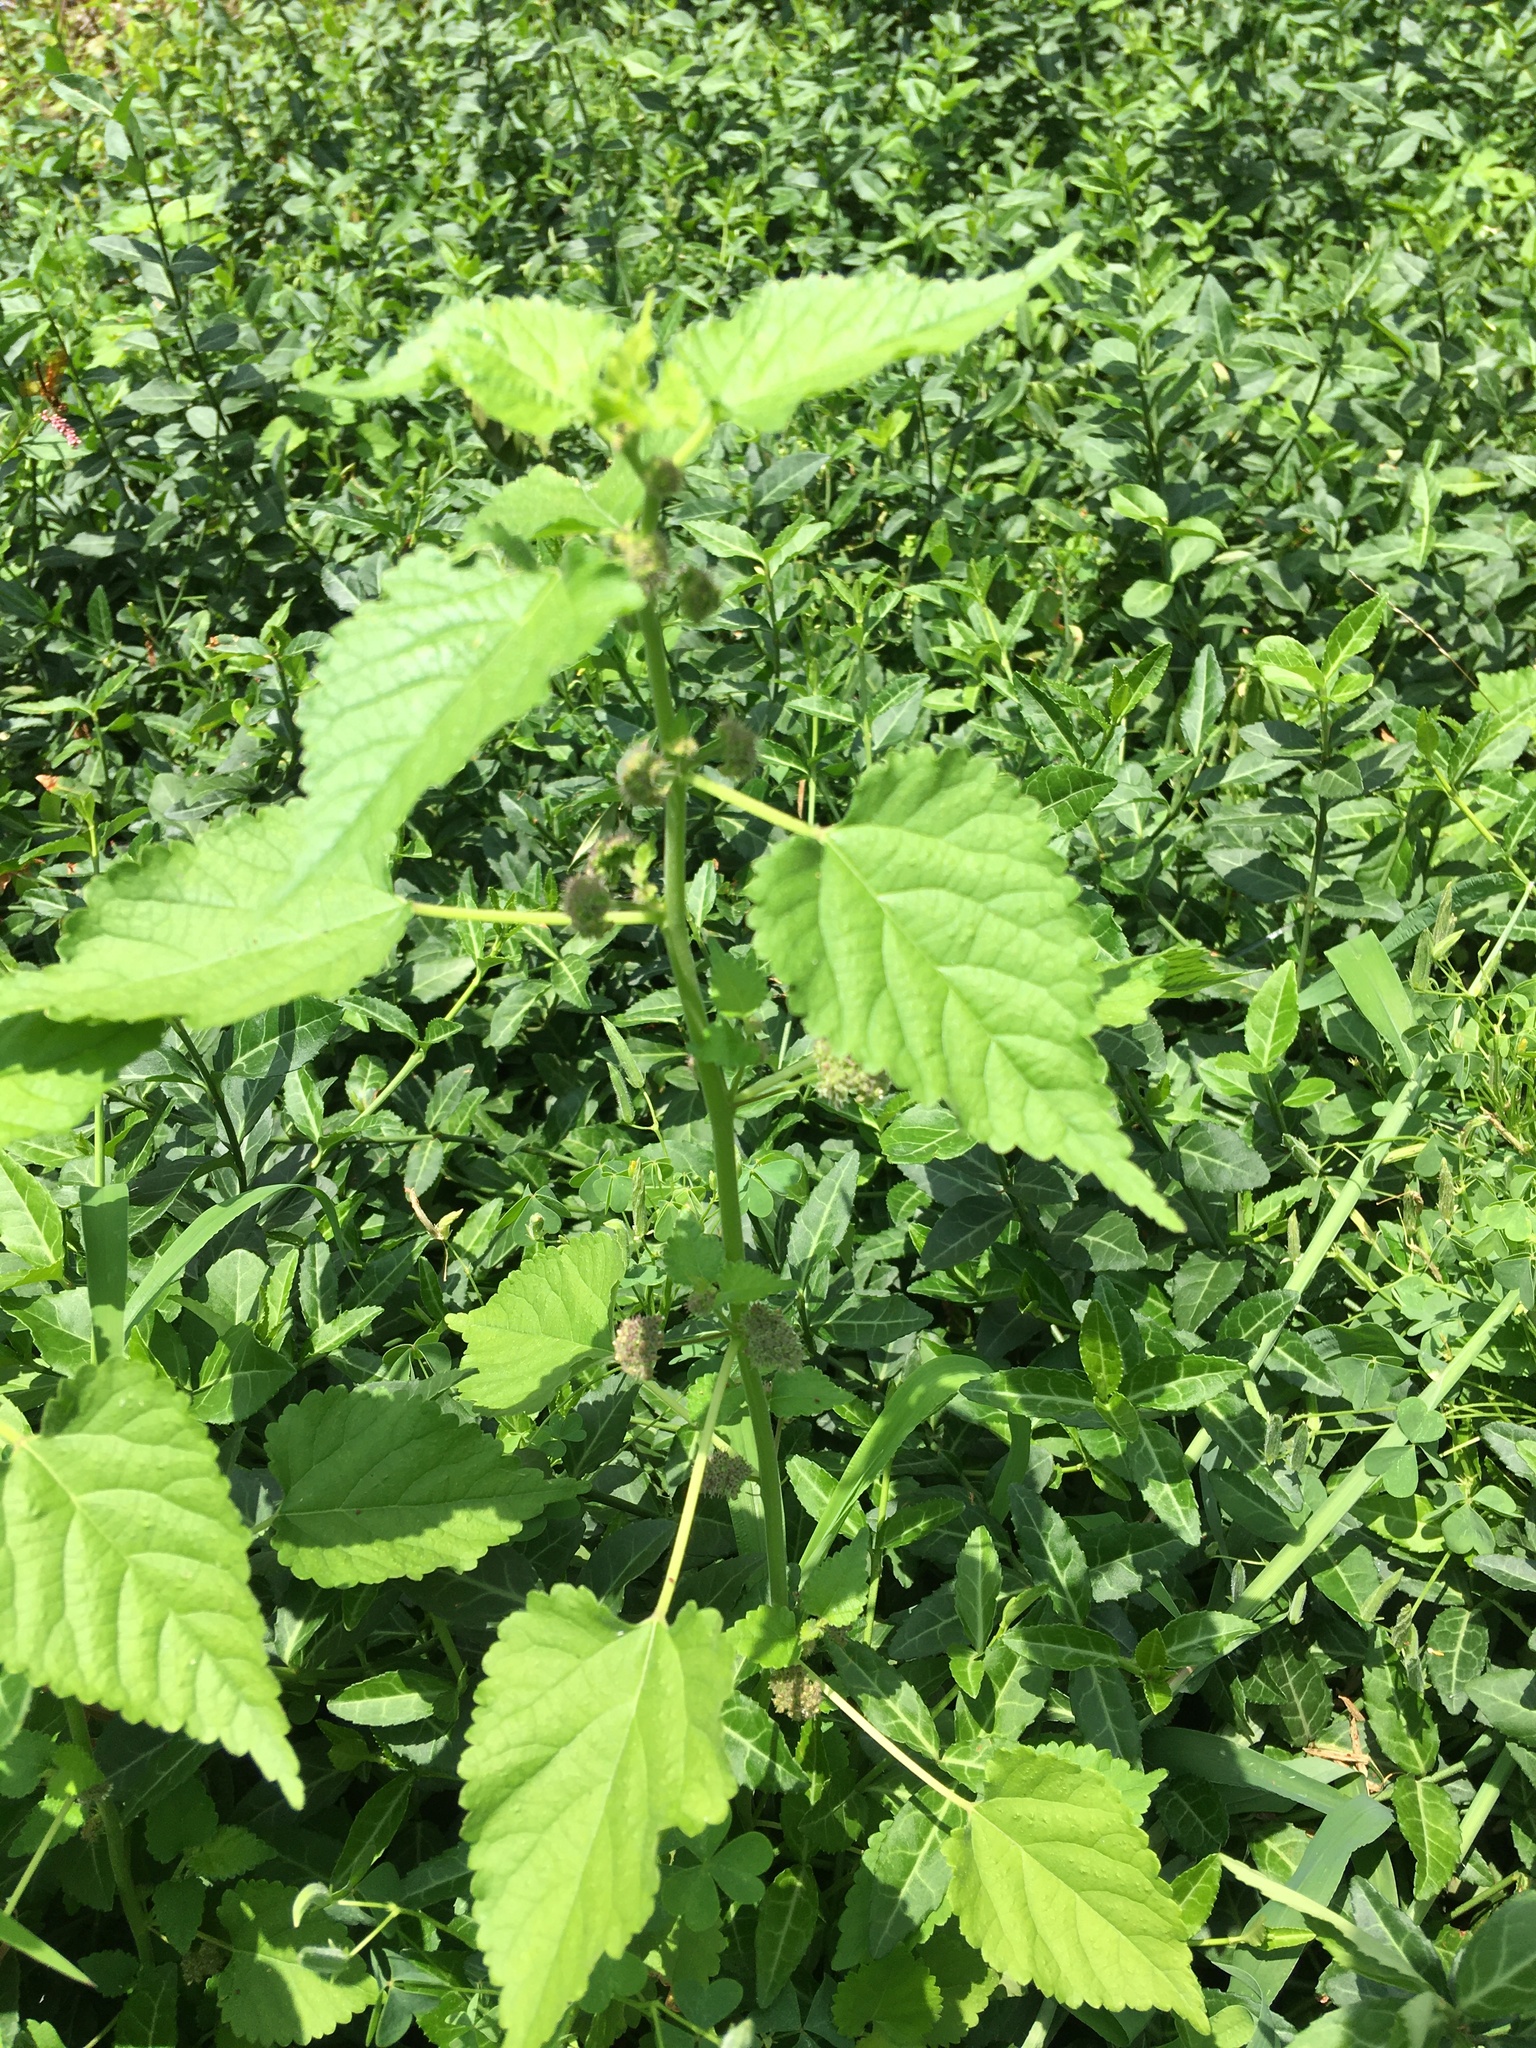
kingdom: Plantae
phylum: Tracheophyta
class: Magnoliopsida
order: Rosales
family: Moraceae
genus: Fatoua
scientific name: Fatoua villosa
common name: Hairy crabweed
